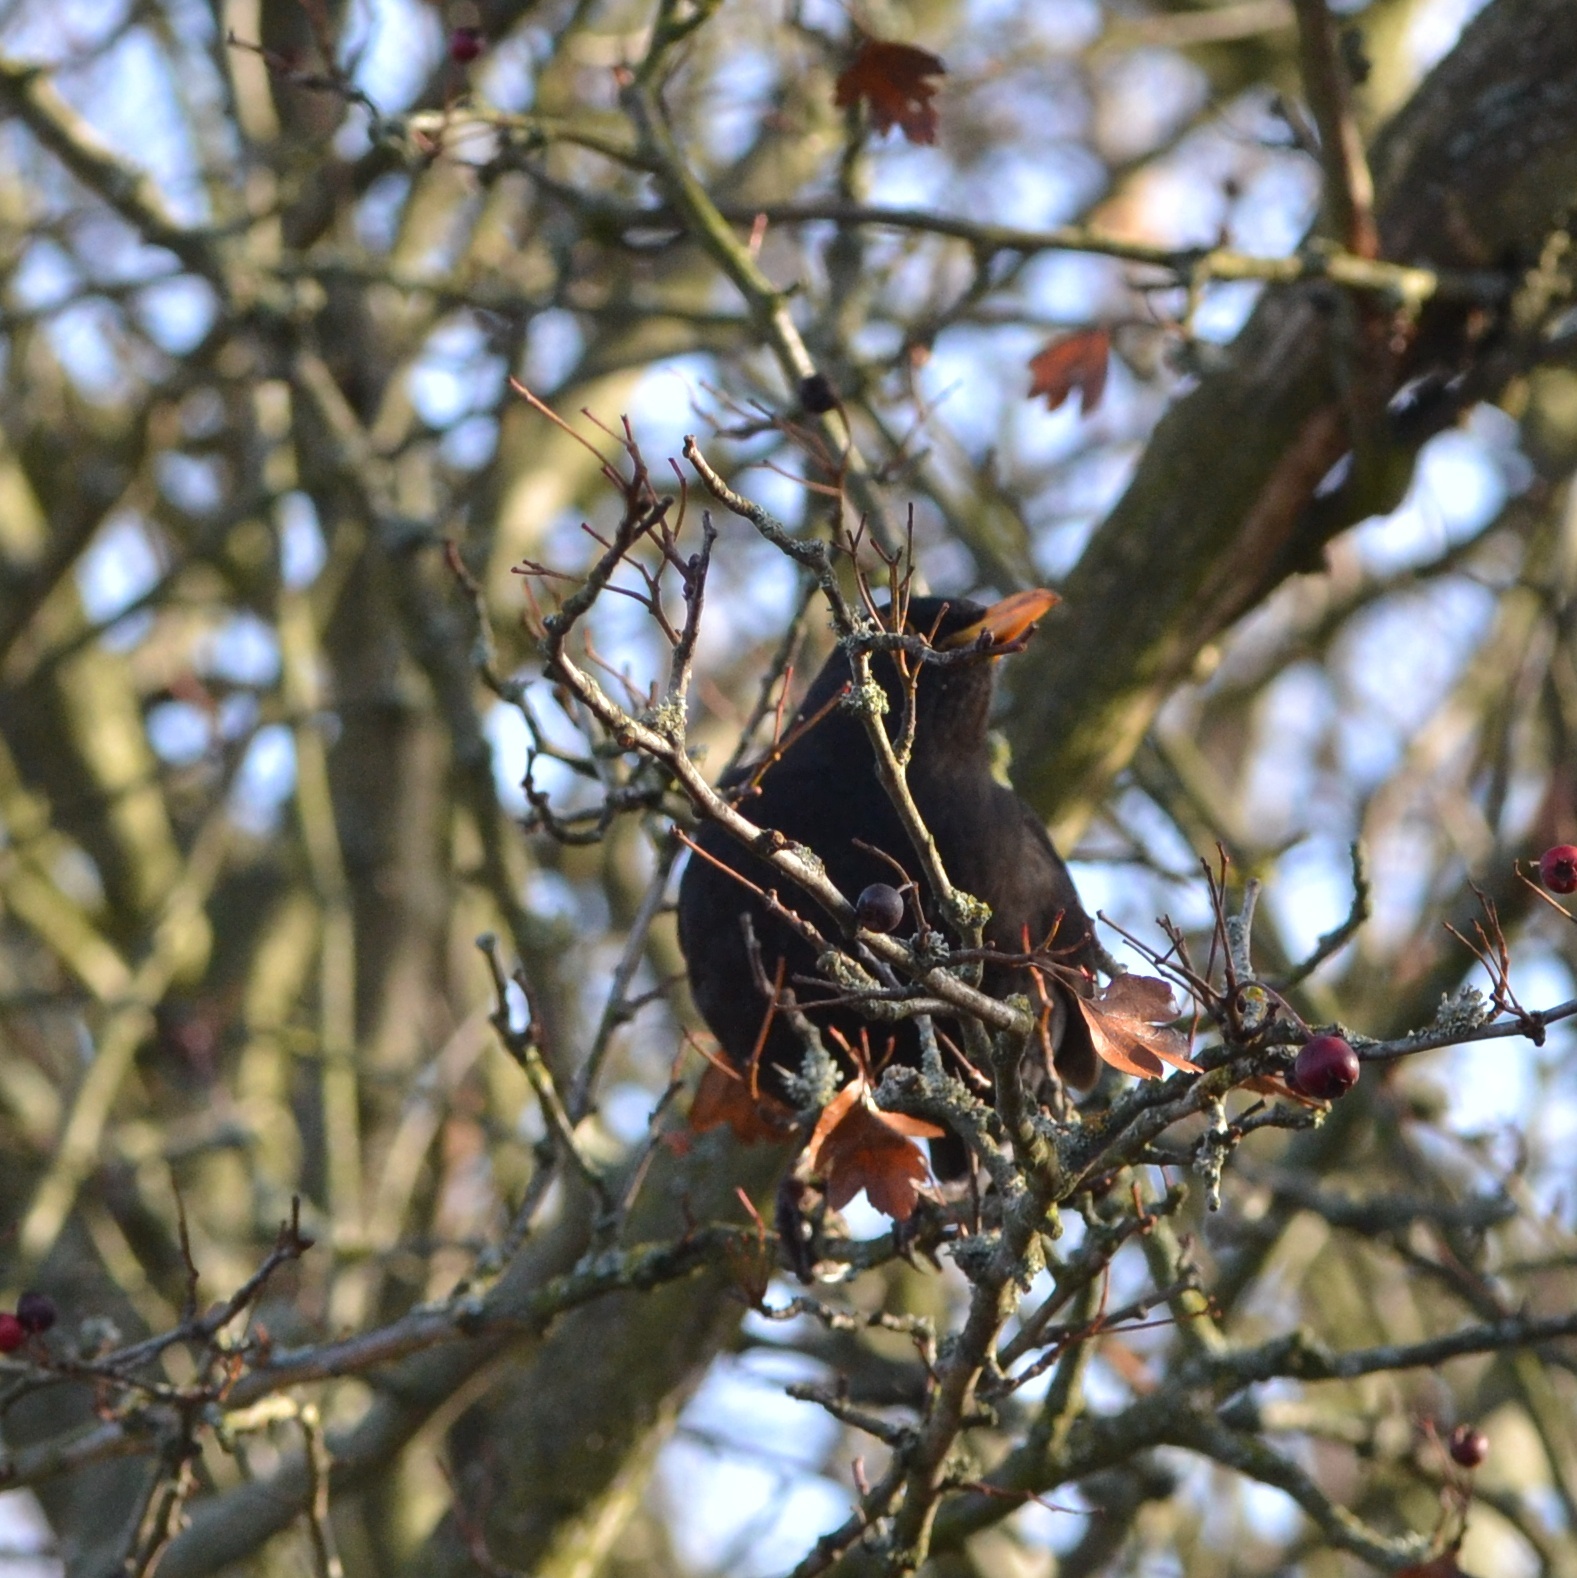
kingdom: Animalia
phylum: Chordata
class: Aves
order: Passeriformes
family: Turdidae
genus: Turdus
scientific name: Turdus merula
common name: Common blackbird
